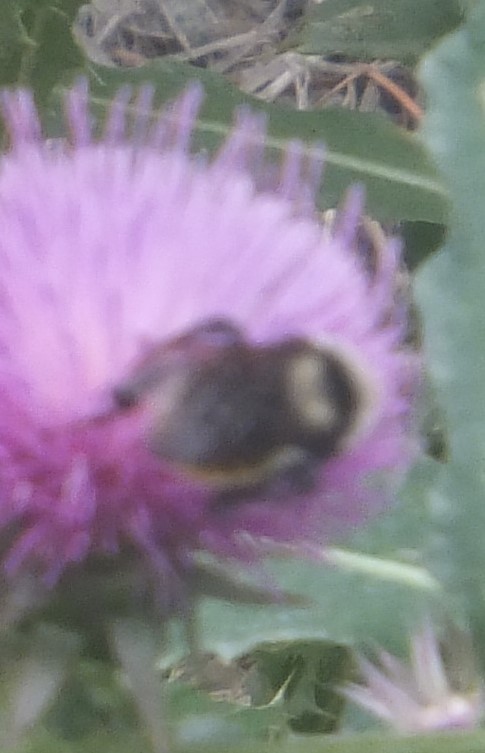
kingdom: Animalia
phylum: Arthropoda
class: Insecta
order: Hymenoptera
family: Apidae
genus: Bombus
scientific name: Bombus appositus
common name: White-shouldered bumble bee
